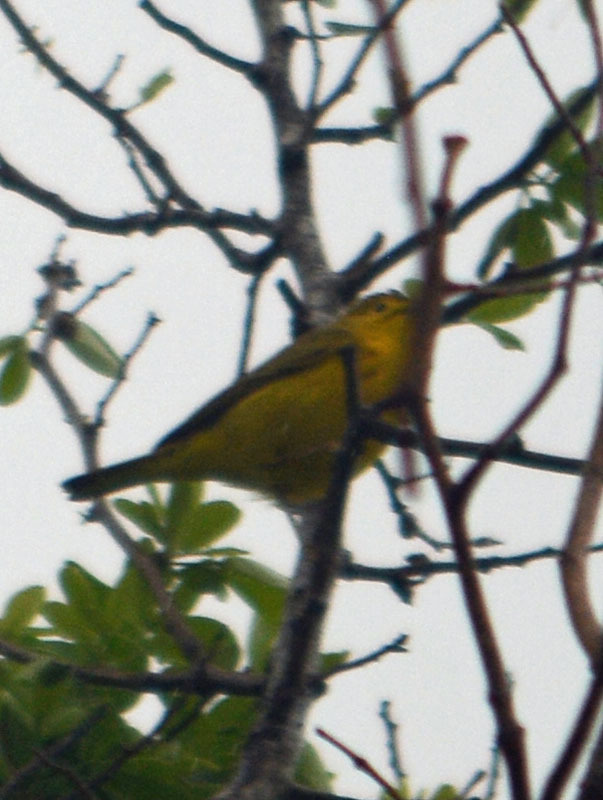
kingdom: Animalia
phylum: Chordata
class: Aves
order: Passeriformes
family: Parulidae
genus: Setophaga
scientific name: Setophaga petechia
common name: Yellow warbler
